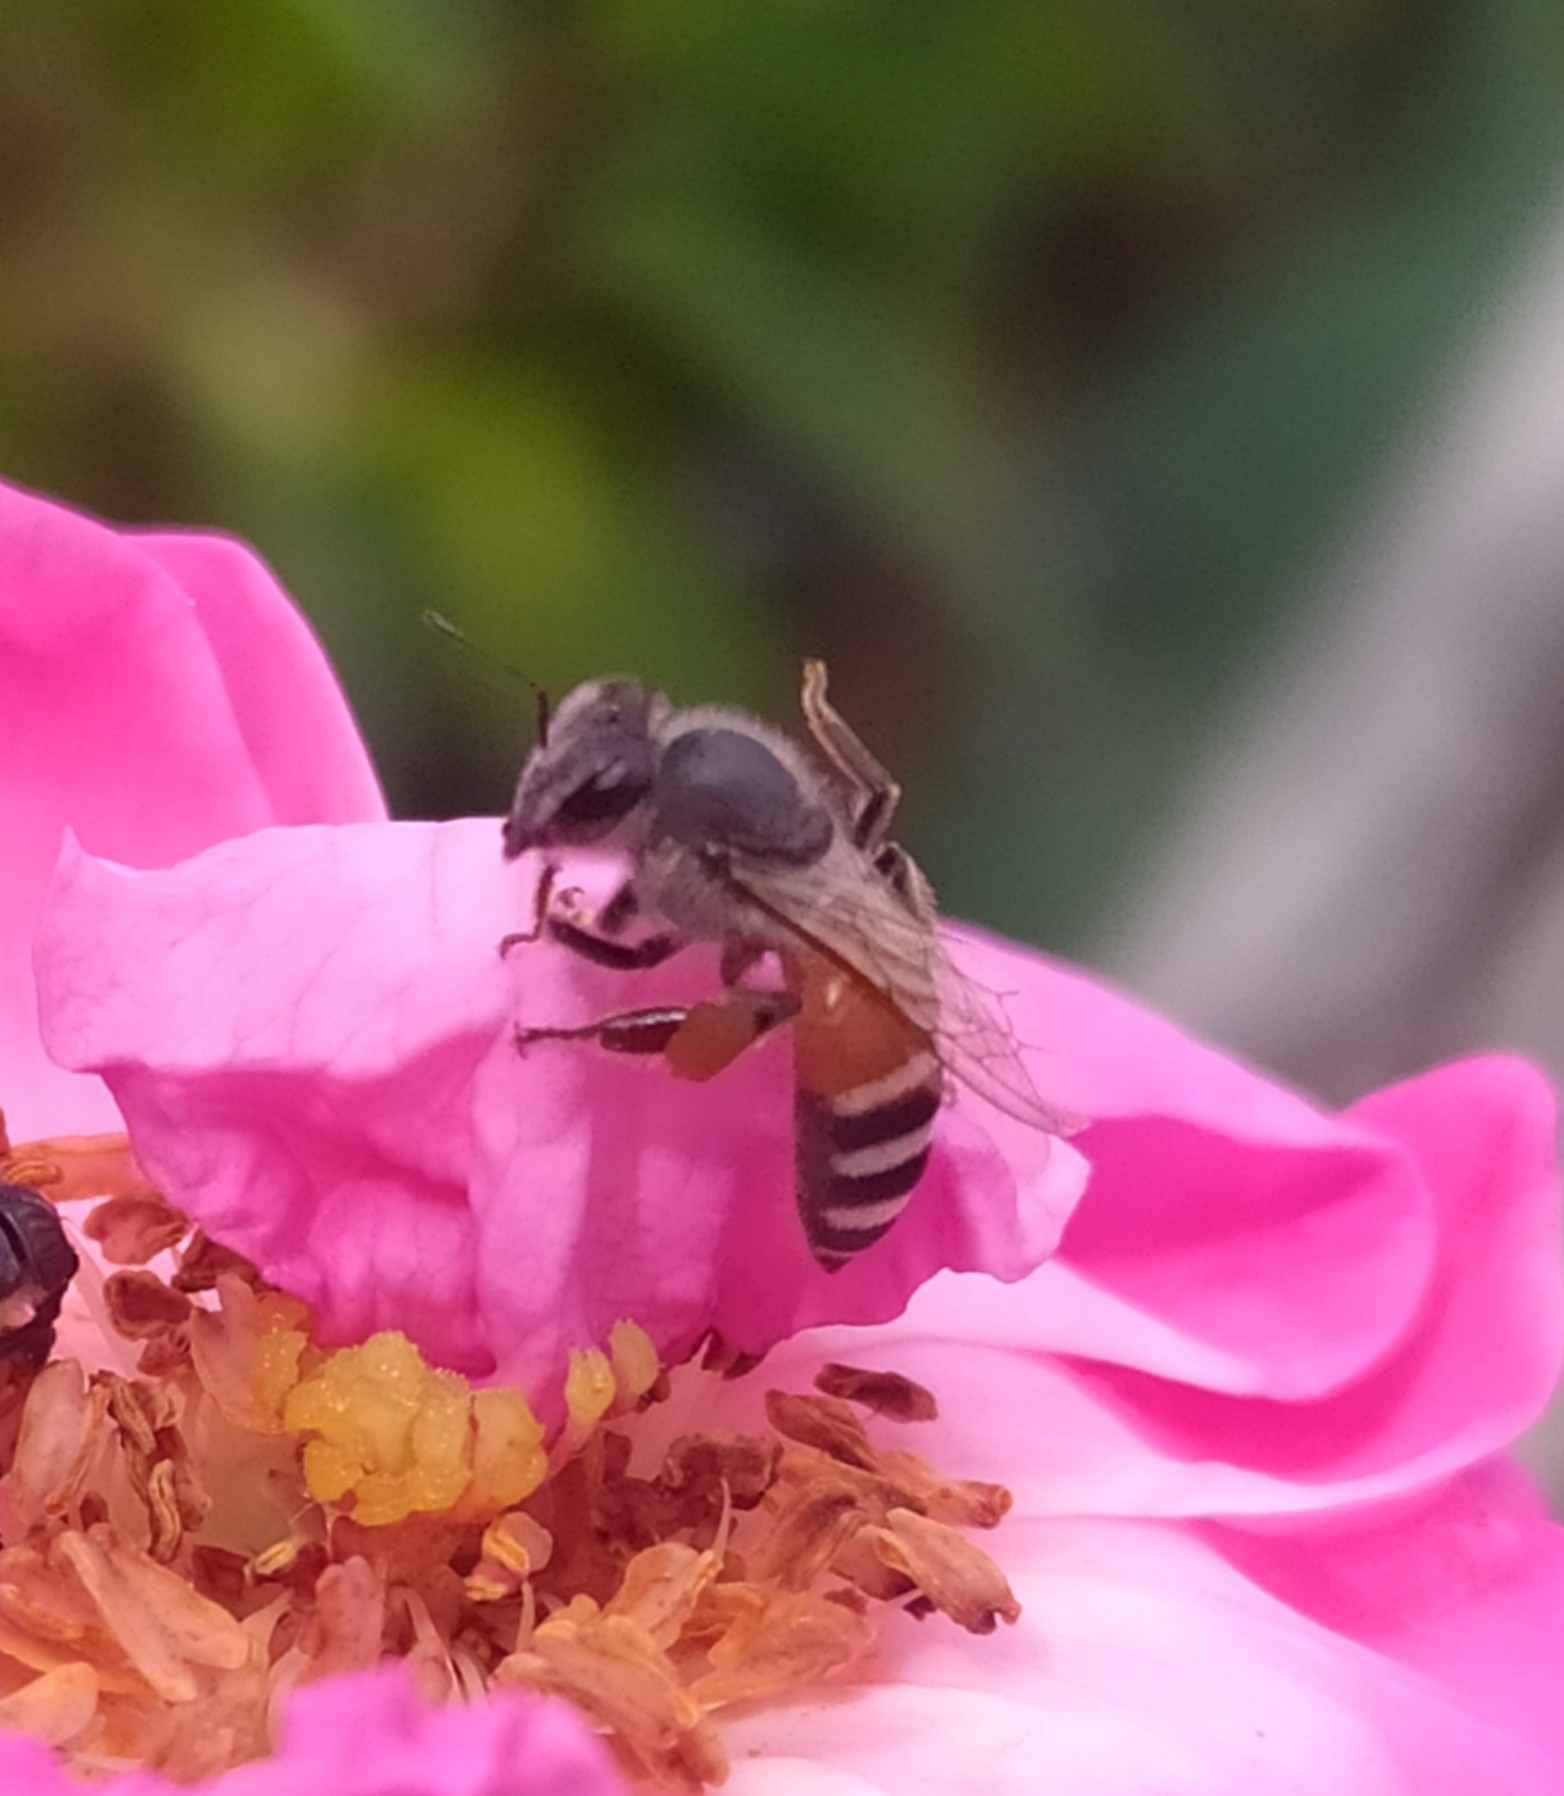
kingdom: Animalia
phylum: Arthropoda
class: Insecta
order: Hymenoptera
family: Apidae
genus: Apis
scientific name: Apis florea
